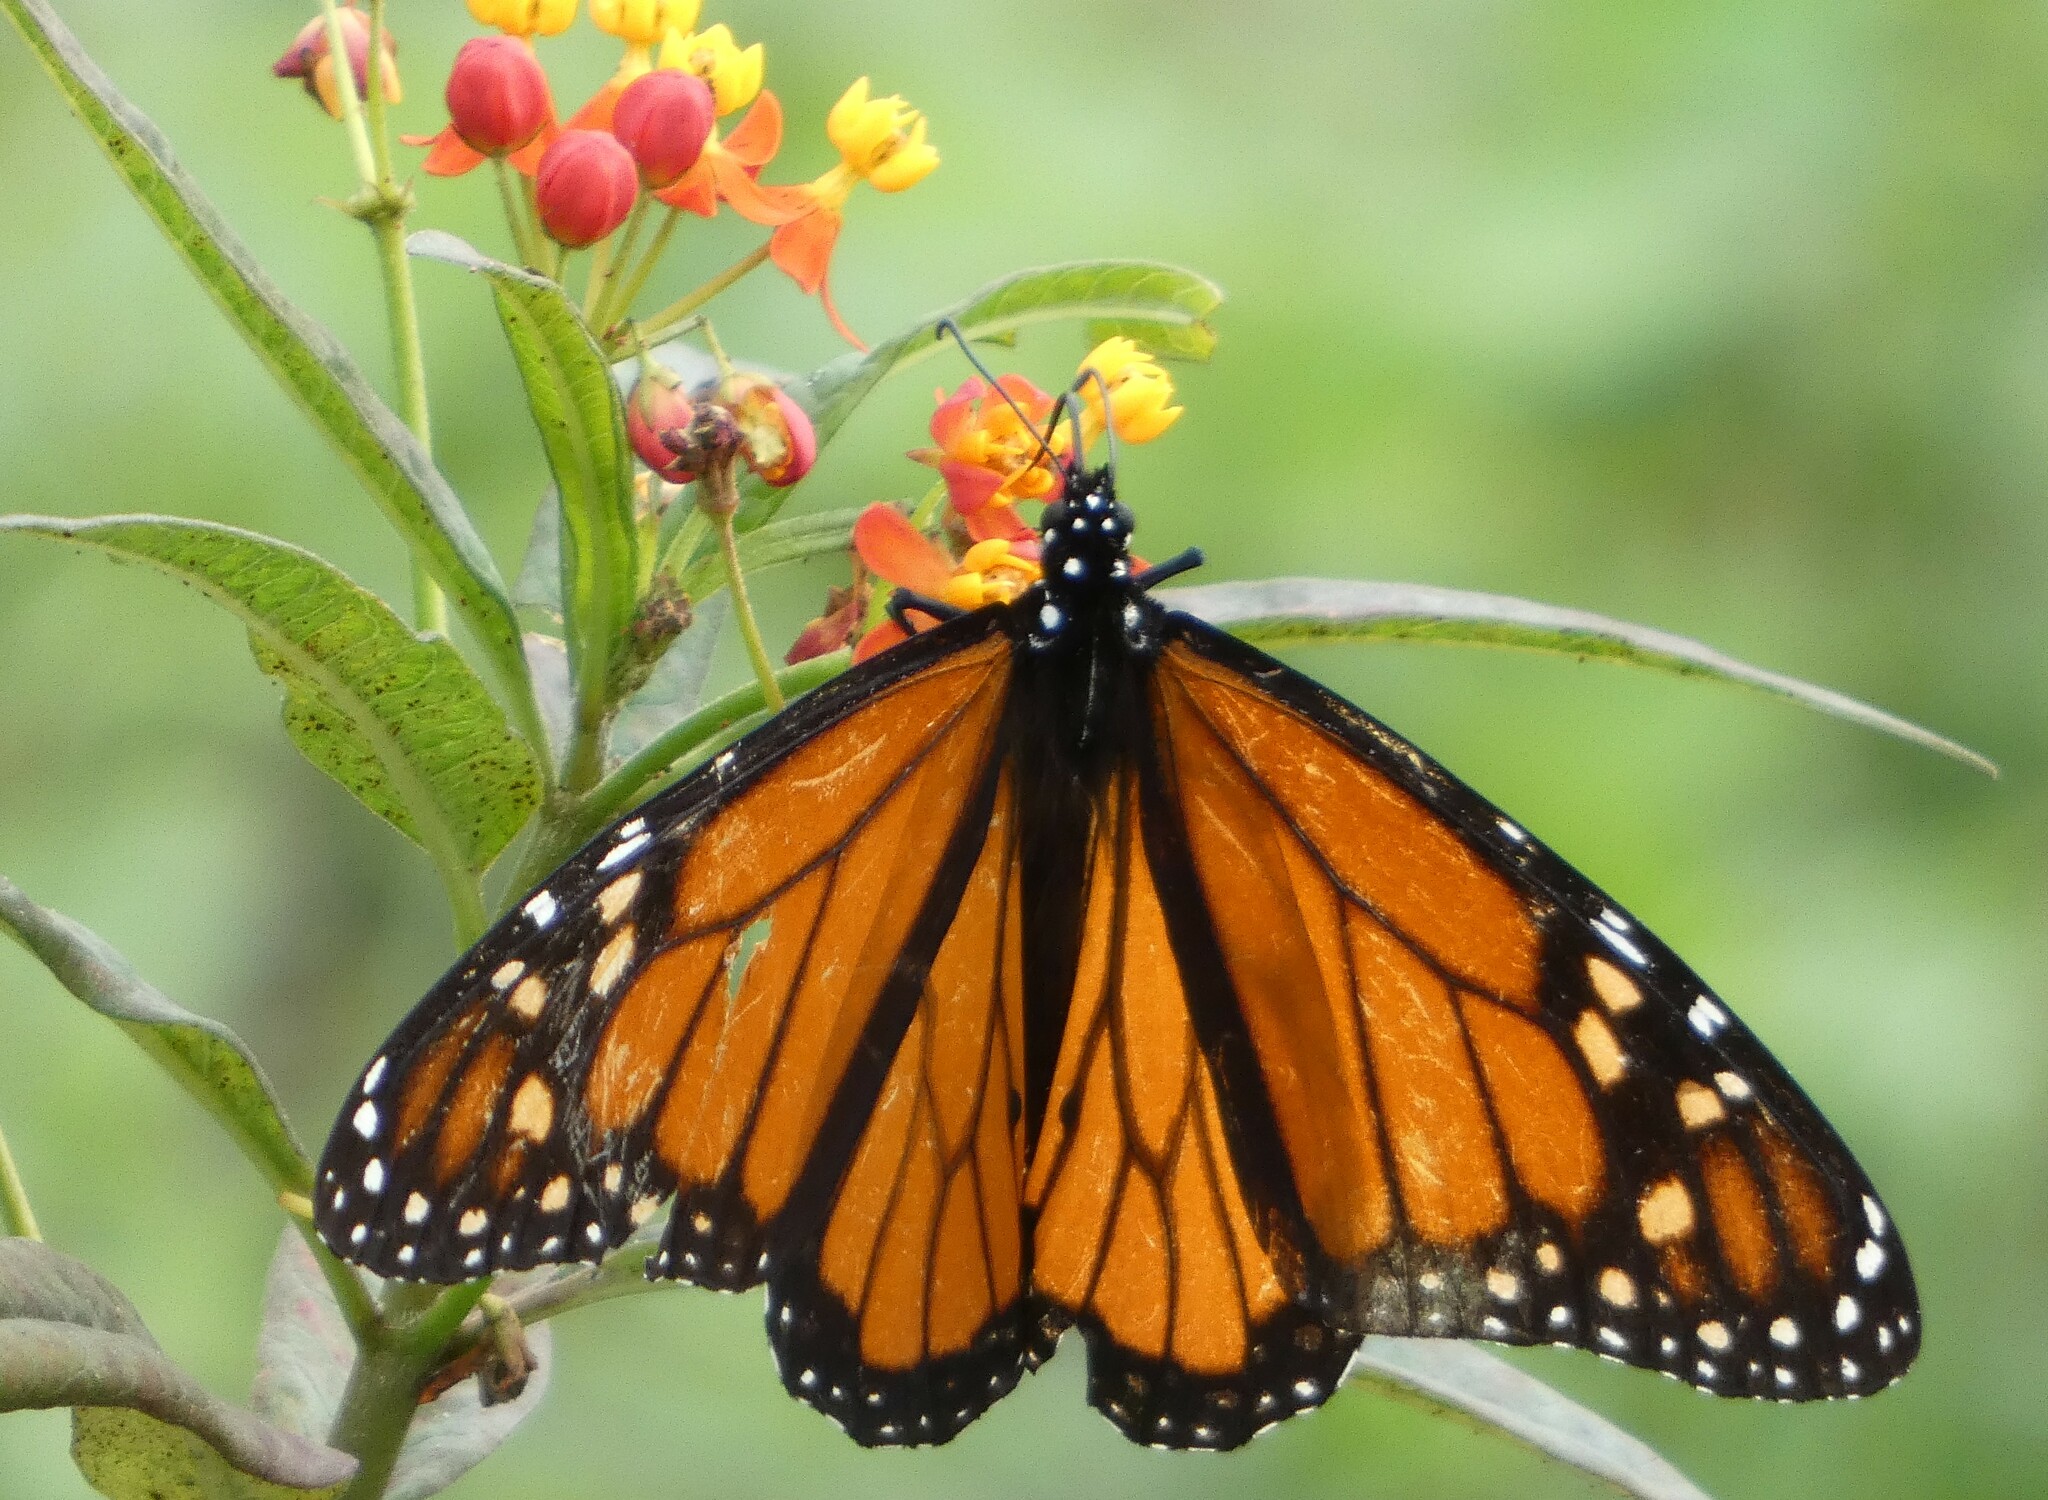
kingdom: Animalia
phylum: Arthropoda
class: Insecta
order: Lepidoptera
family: Nymphalidae
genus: Danaus
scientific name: Danaus plexippus
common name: Monarch
